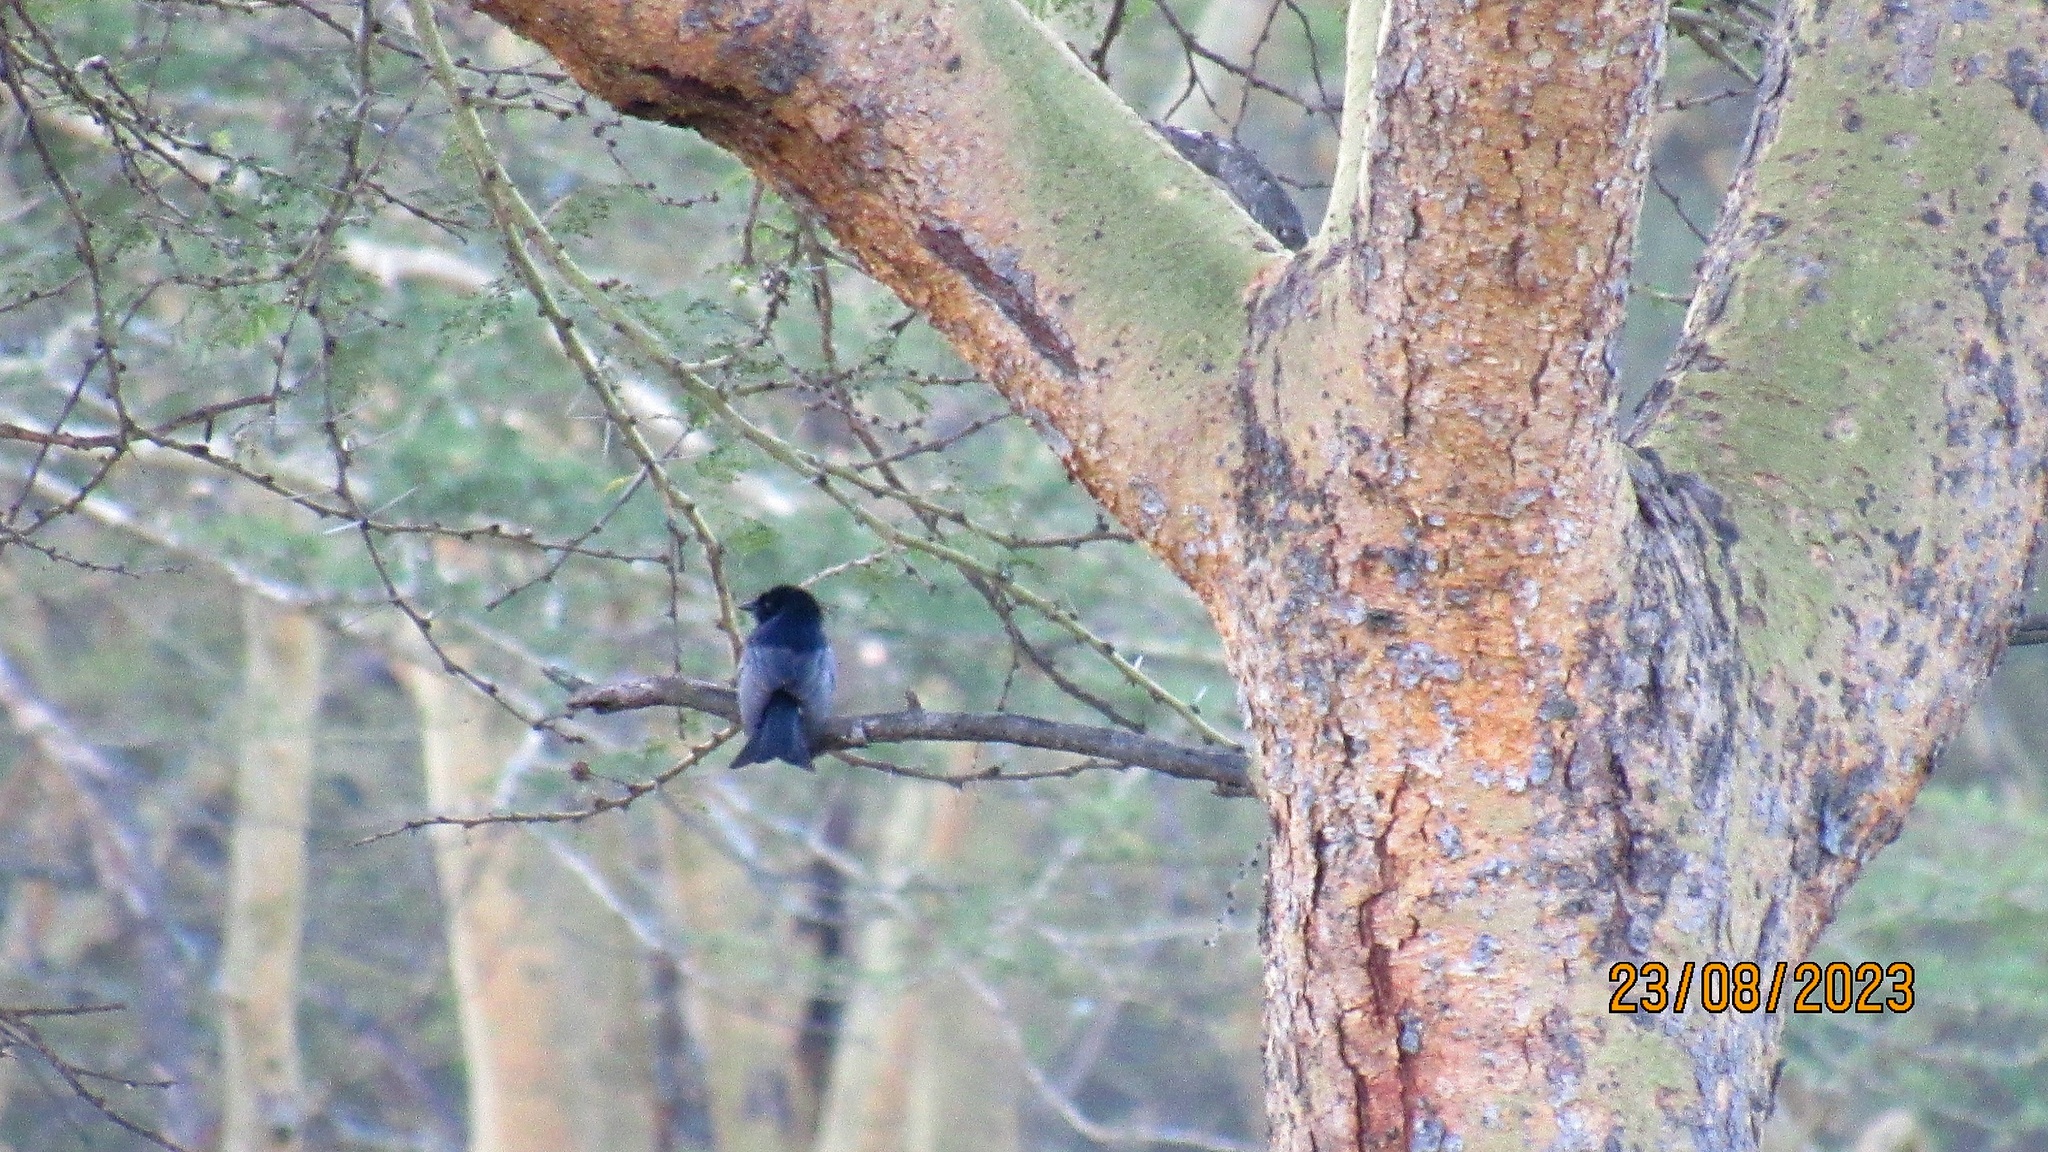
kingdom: Animalia
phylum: Chordata
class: Aves
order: Passeriformes
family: Dicruridae
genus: Dicrurus
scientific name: Dicrurus adsimilis
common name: Fork-tailed drongo
